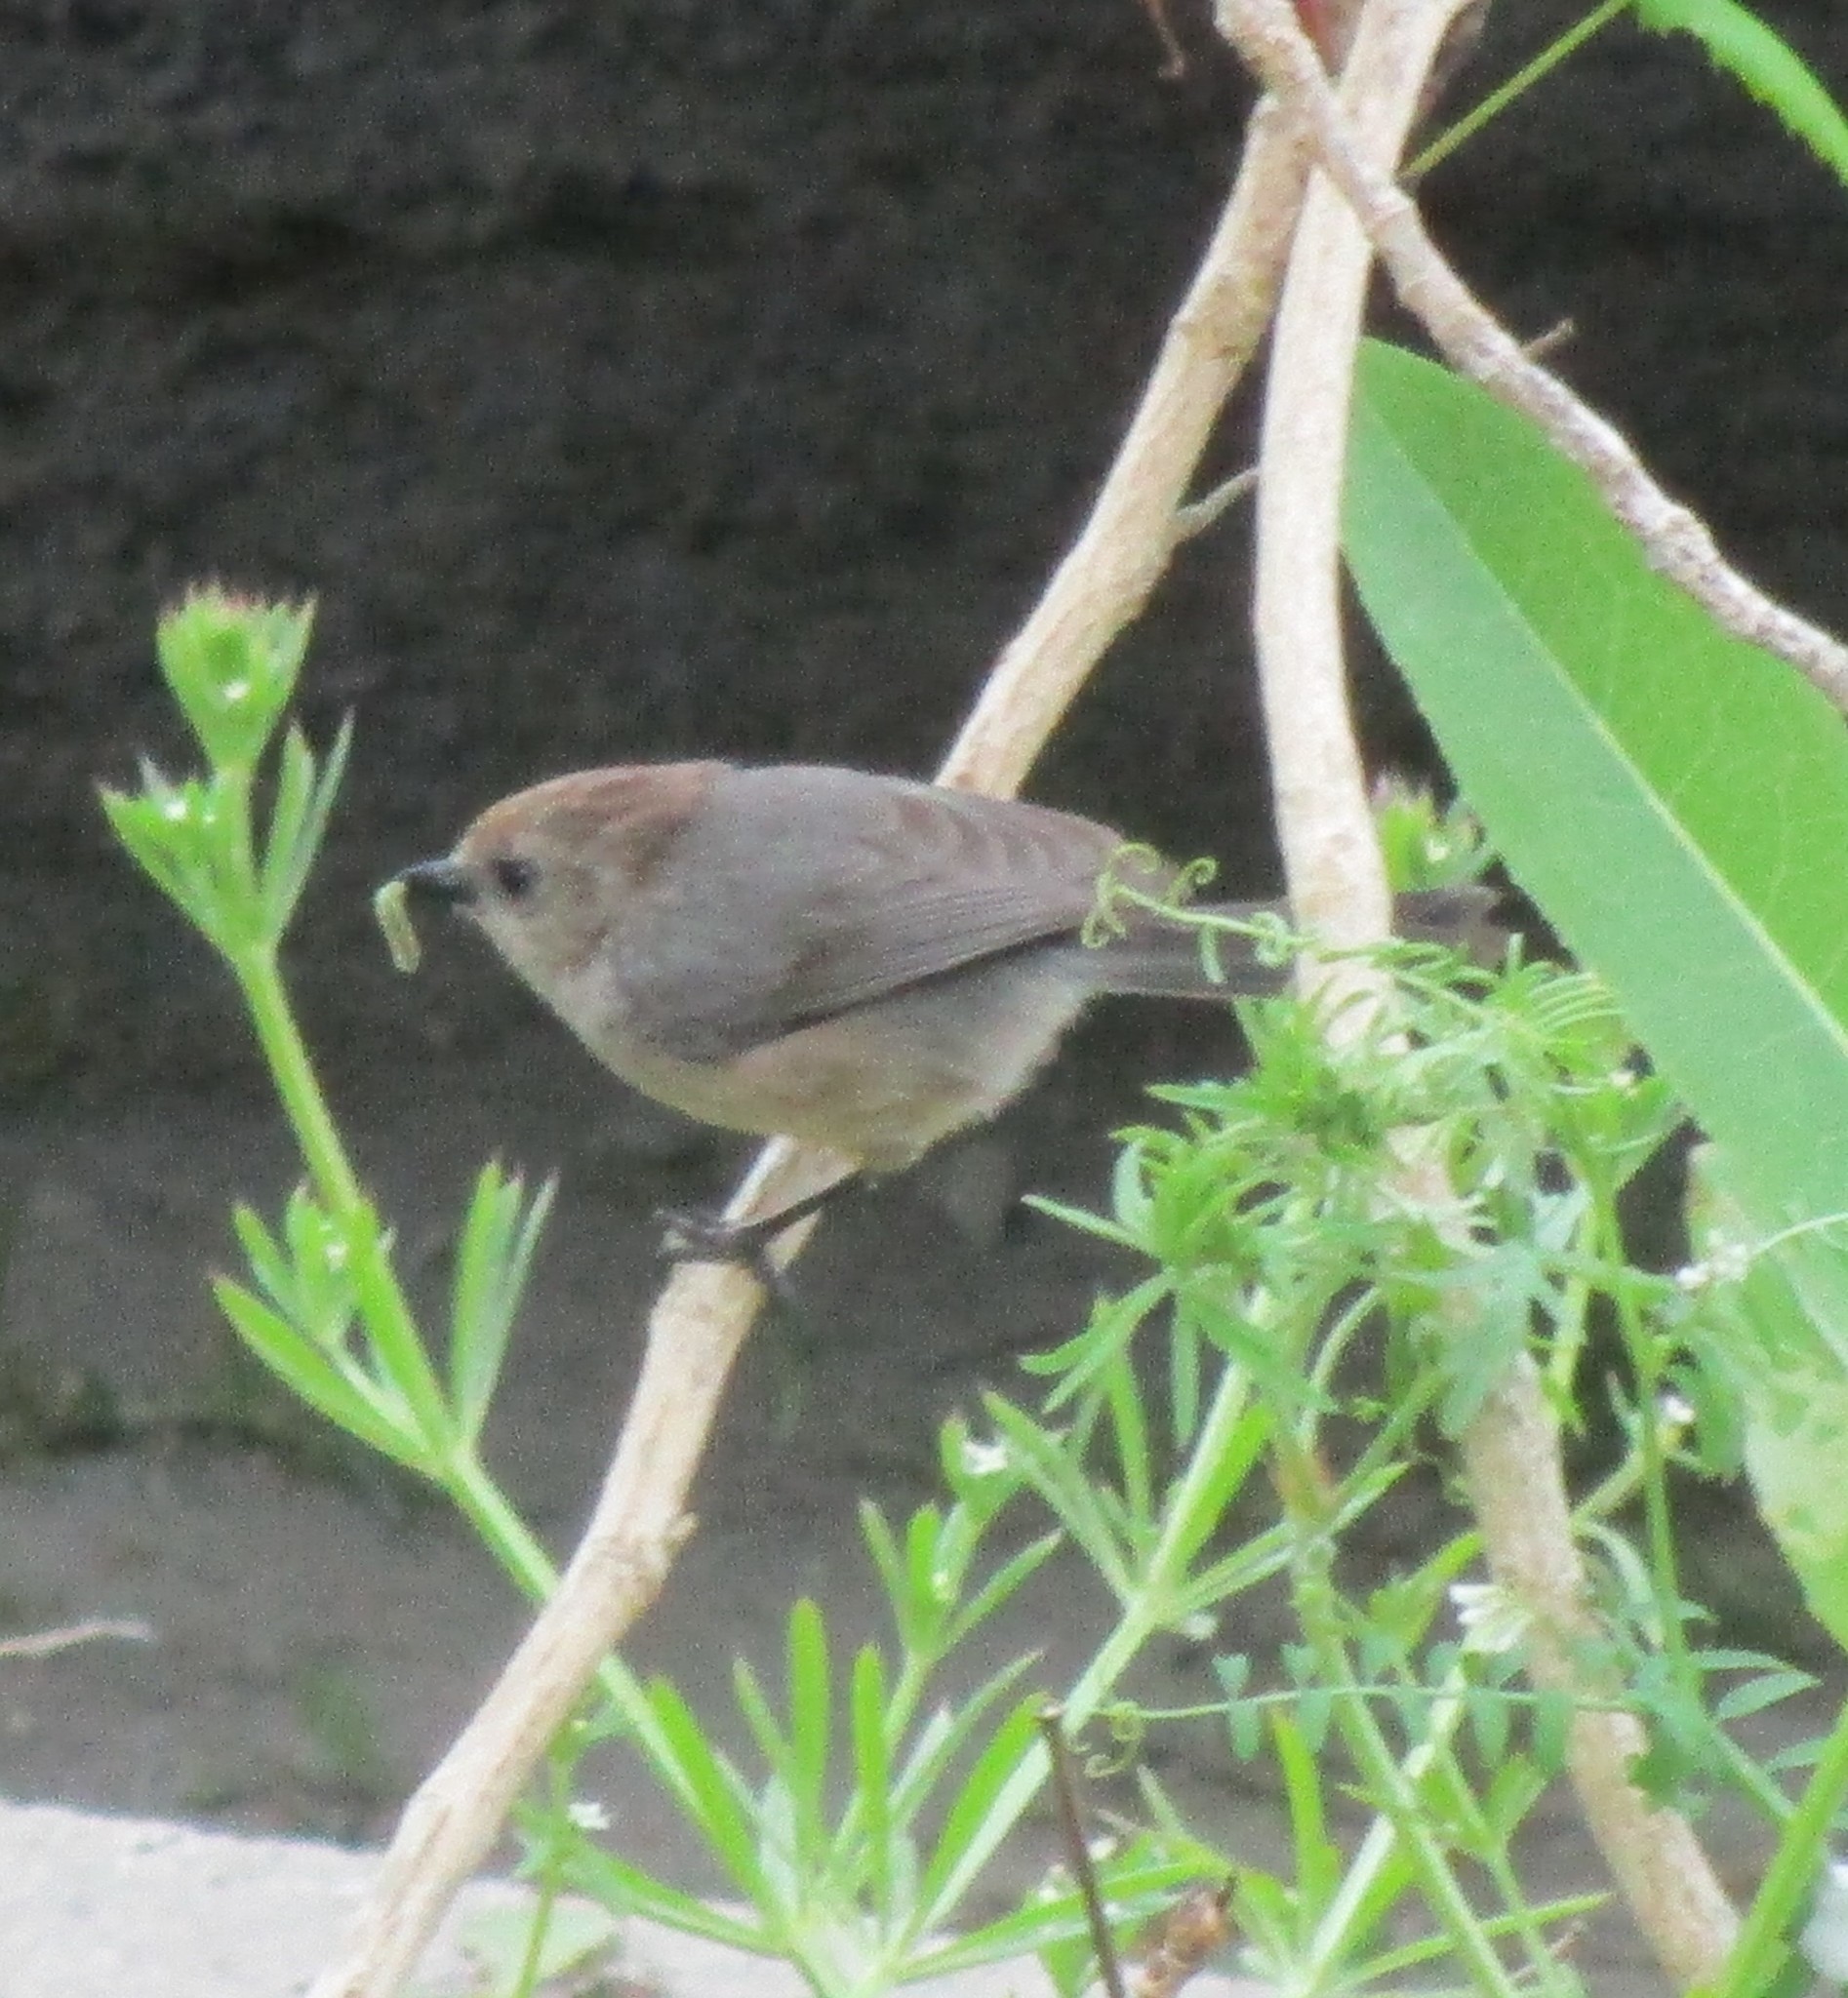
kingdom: Animalia
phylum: Chordata
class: Aves
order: Passeriformes
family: Aegithalidae
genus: Psaltriparus
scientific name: Psaltriparus minimus
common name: American bushtit
